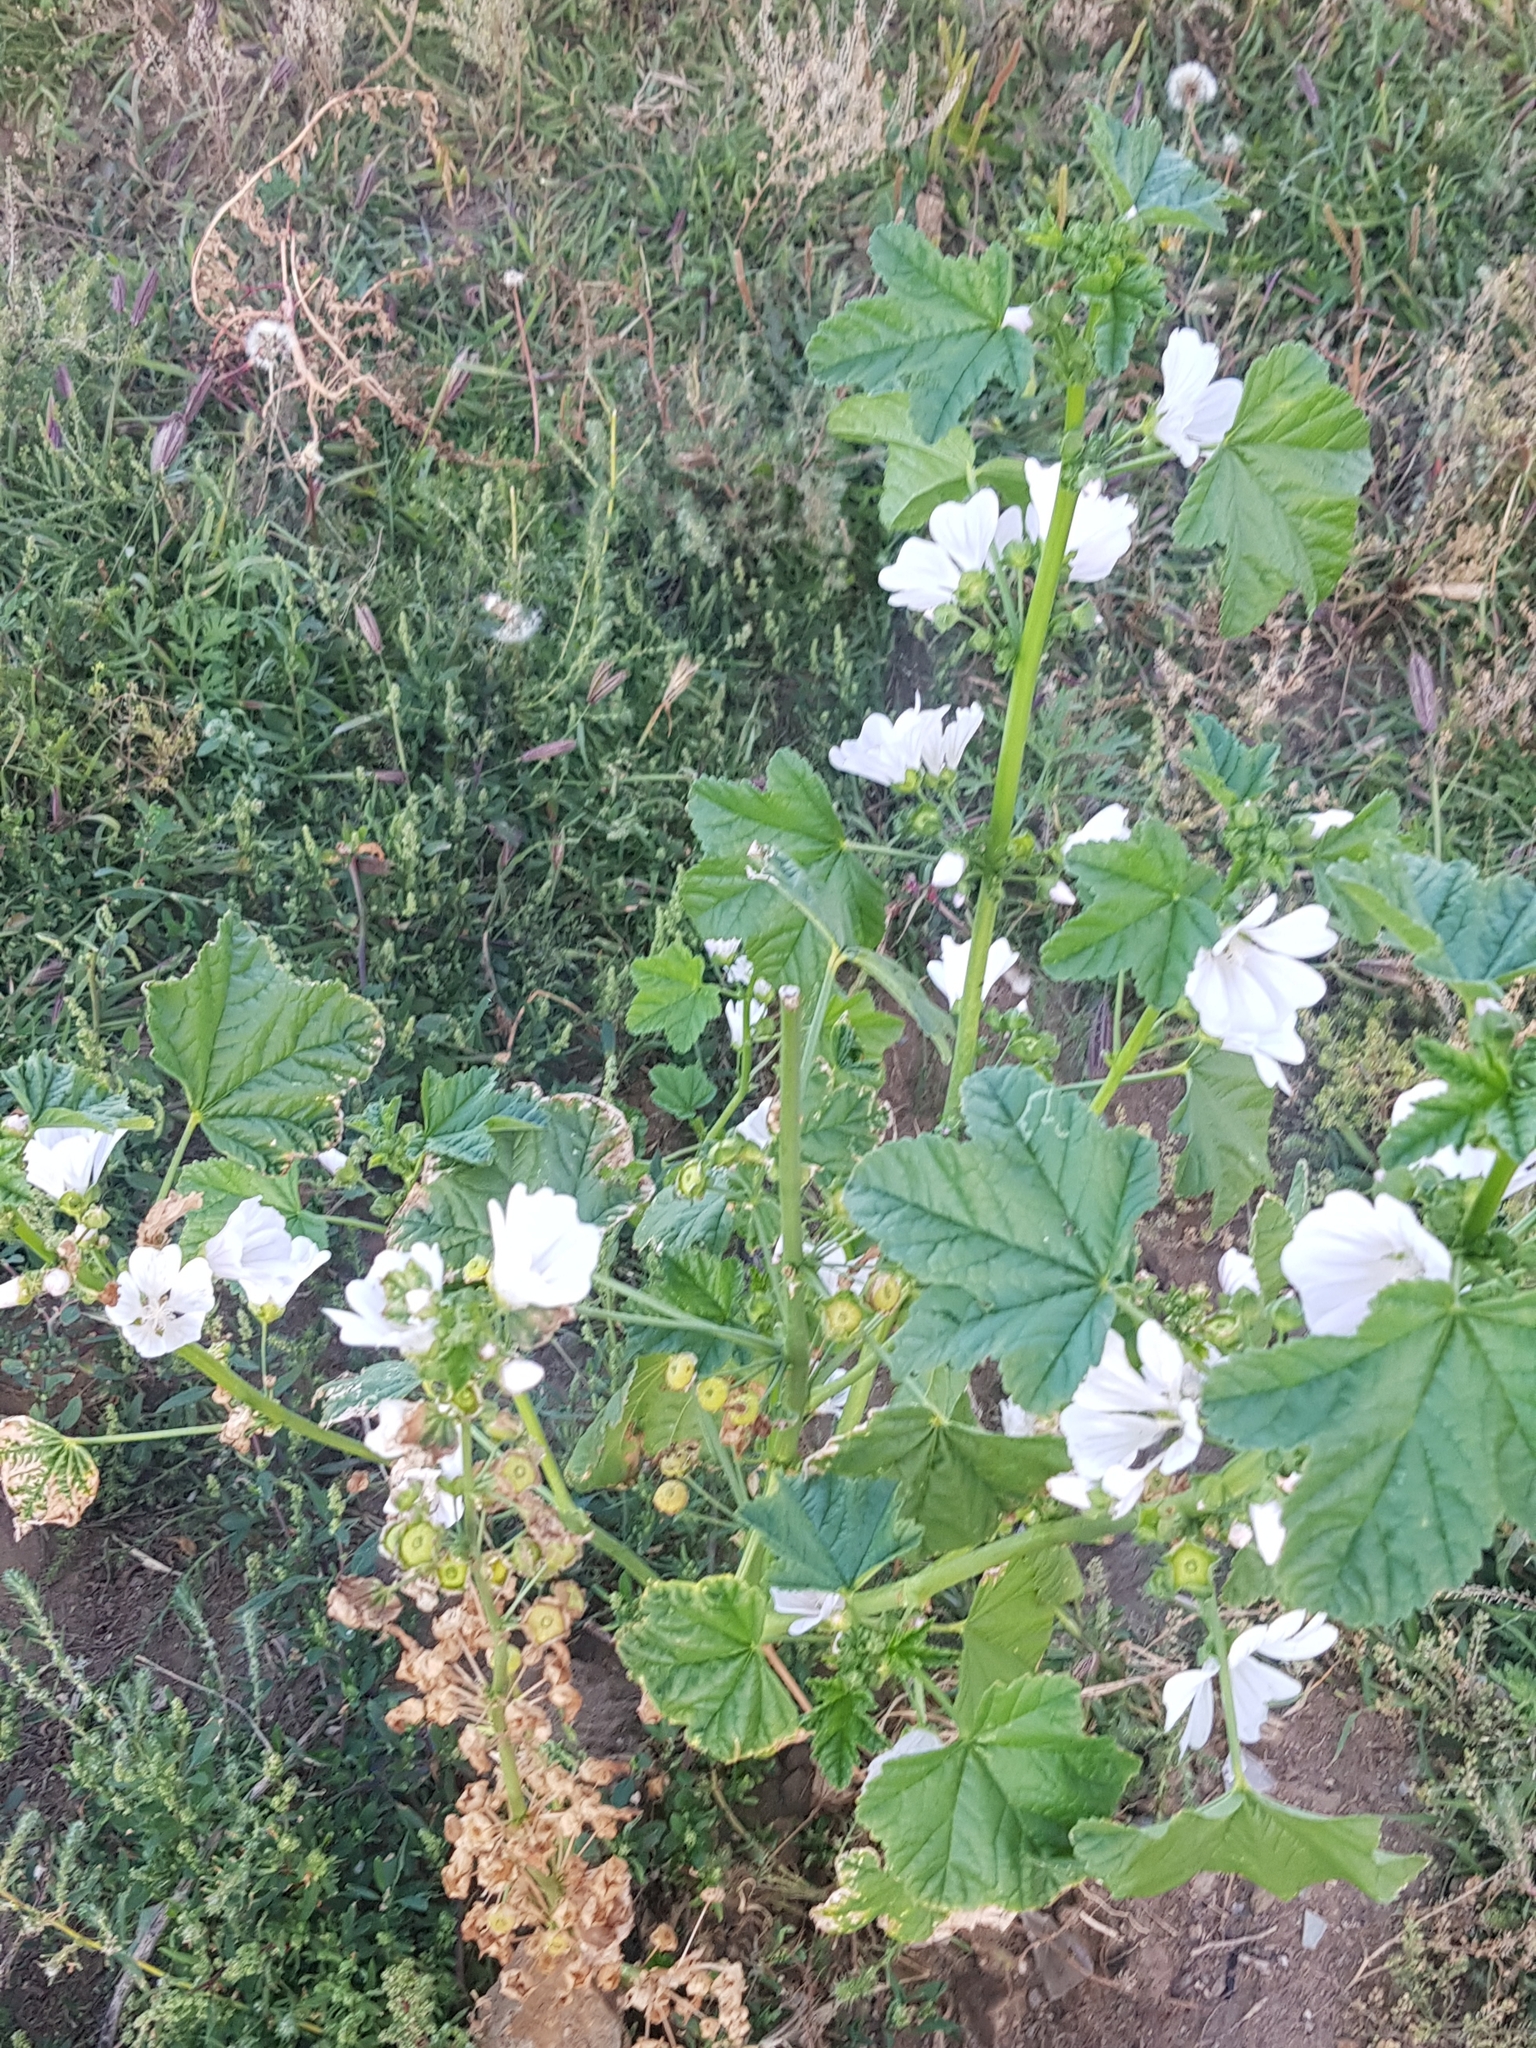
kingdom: Plantae
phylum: Tracheophyta
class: Magnoliopsida
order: Malvales
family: Malvaceae
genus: Malva
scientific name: Malva verticillata
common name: Chinese mallow
